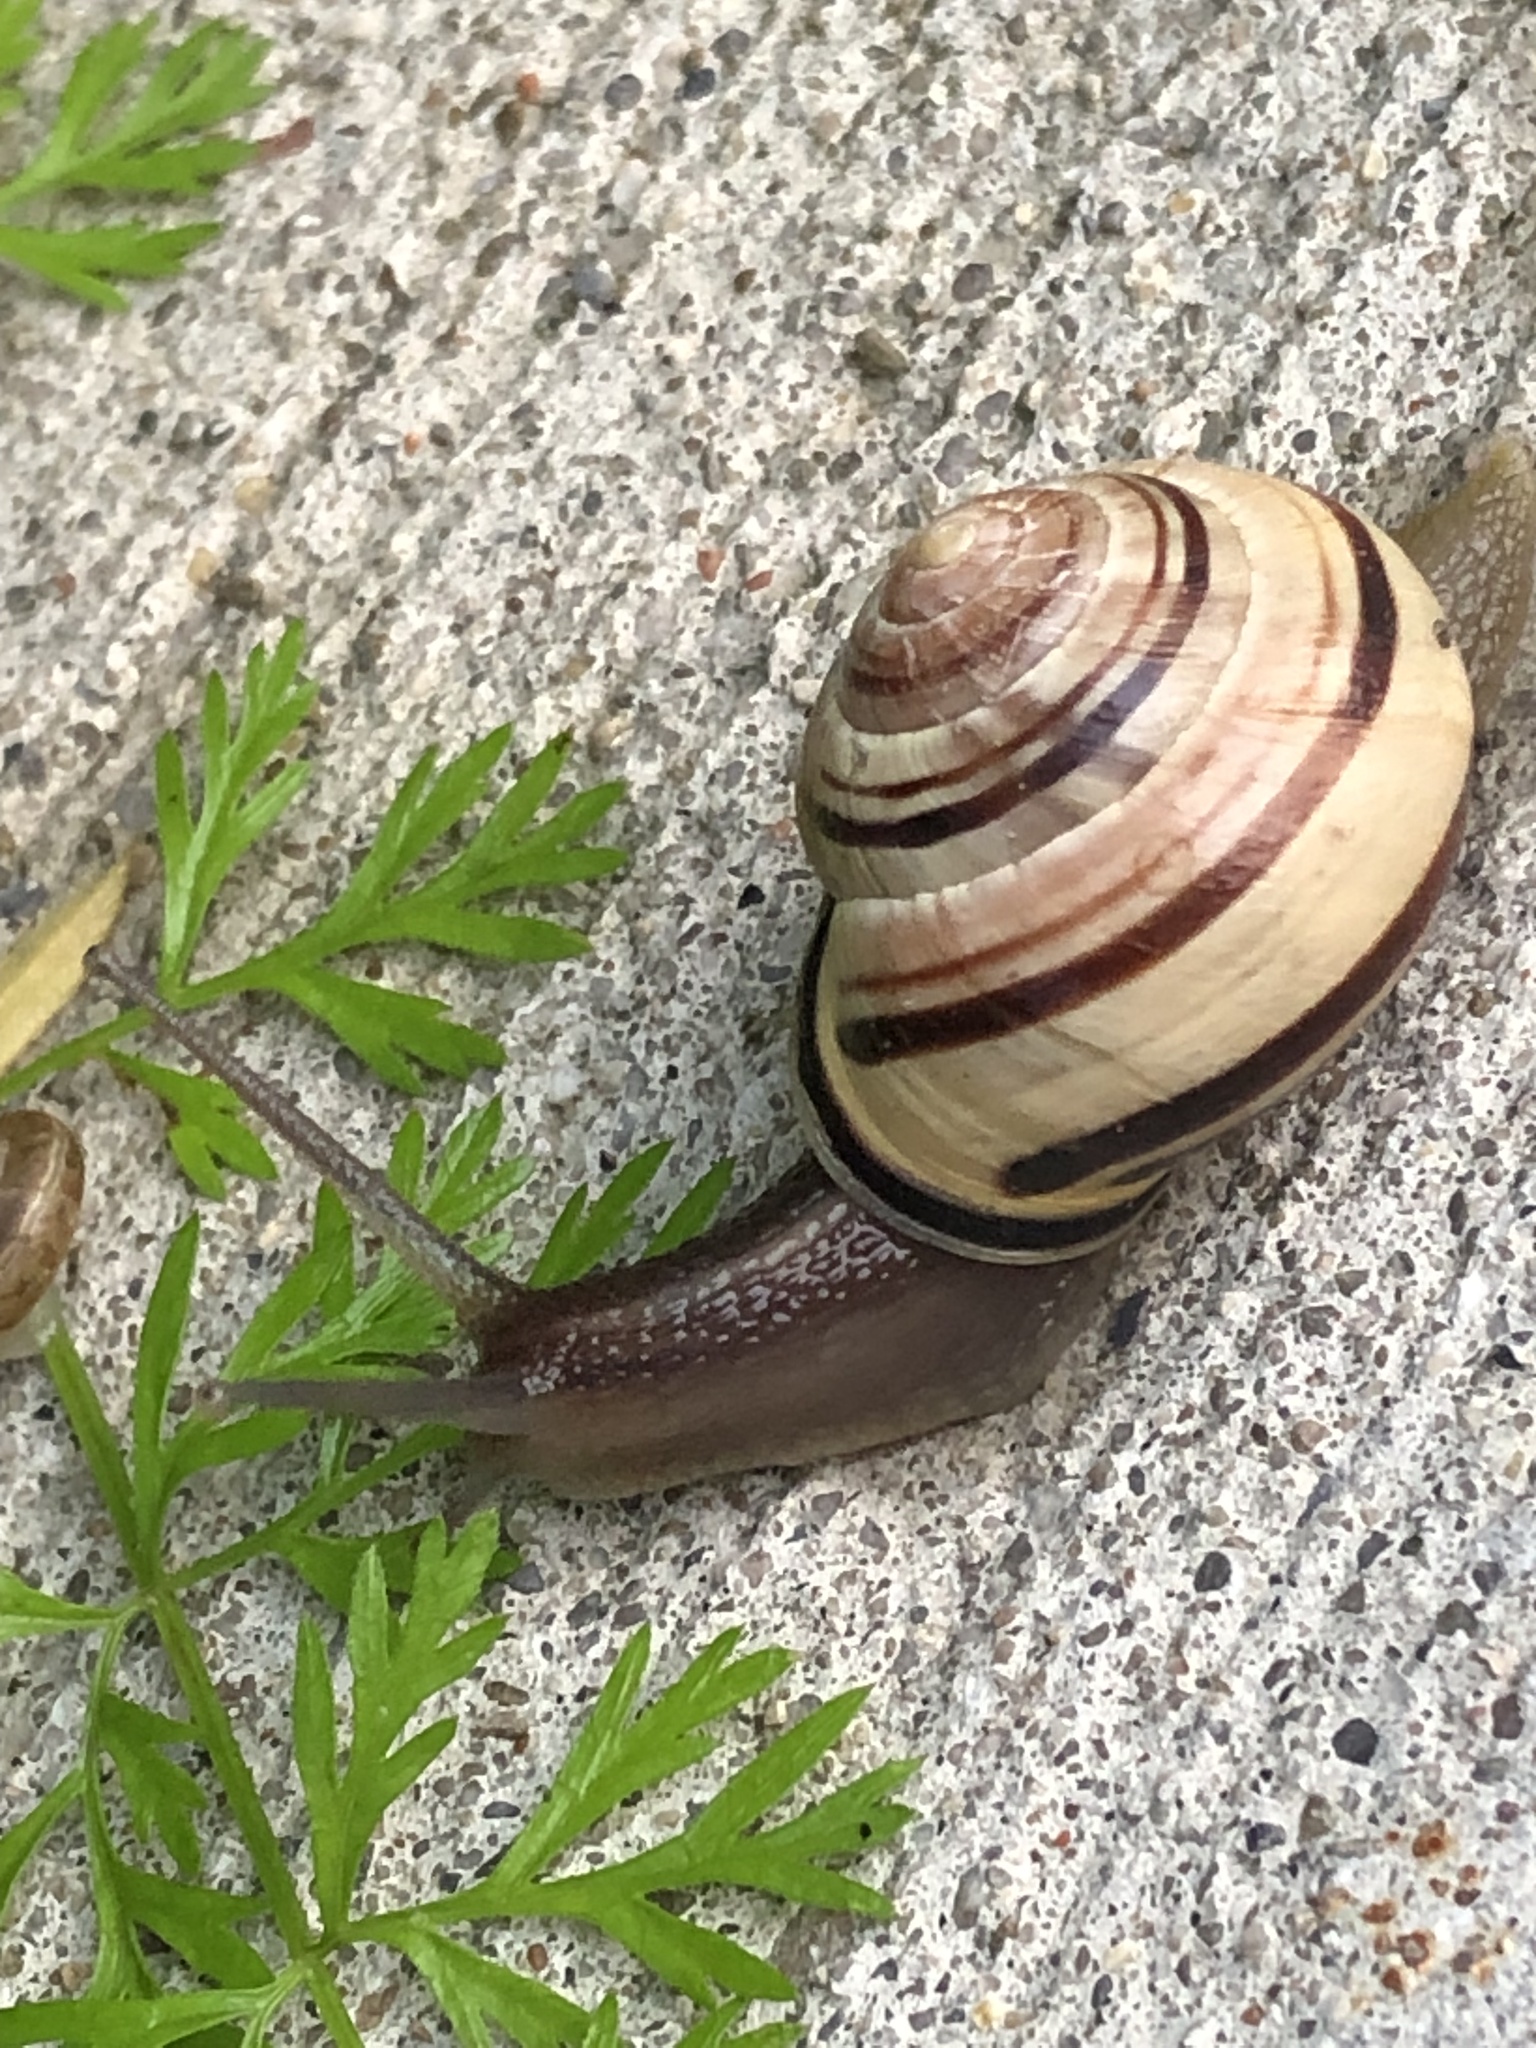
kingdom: Animalia
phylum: Mollusca
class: Gastropoda
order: Stylommatophora
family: Helicidae
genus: Cepaea
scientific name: Cepaea nemoralis
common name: Grovesnail
